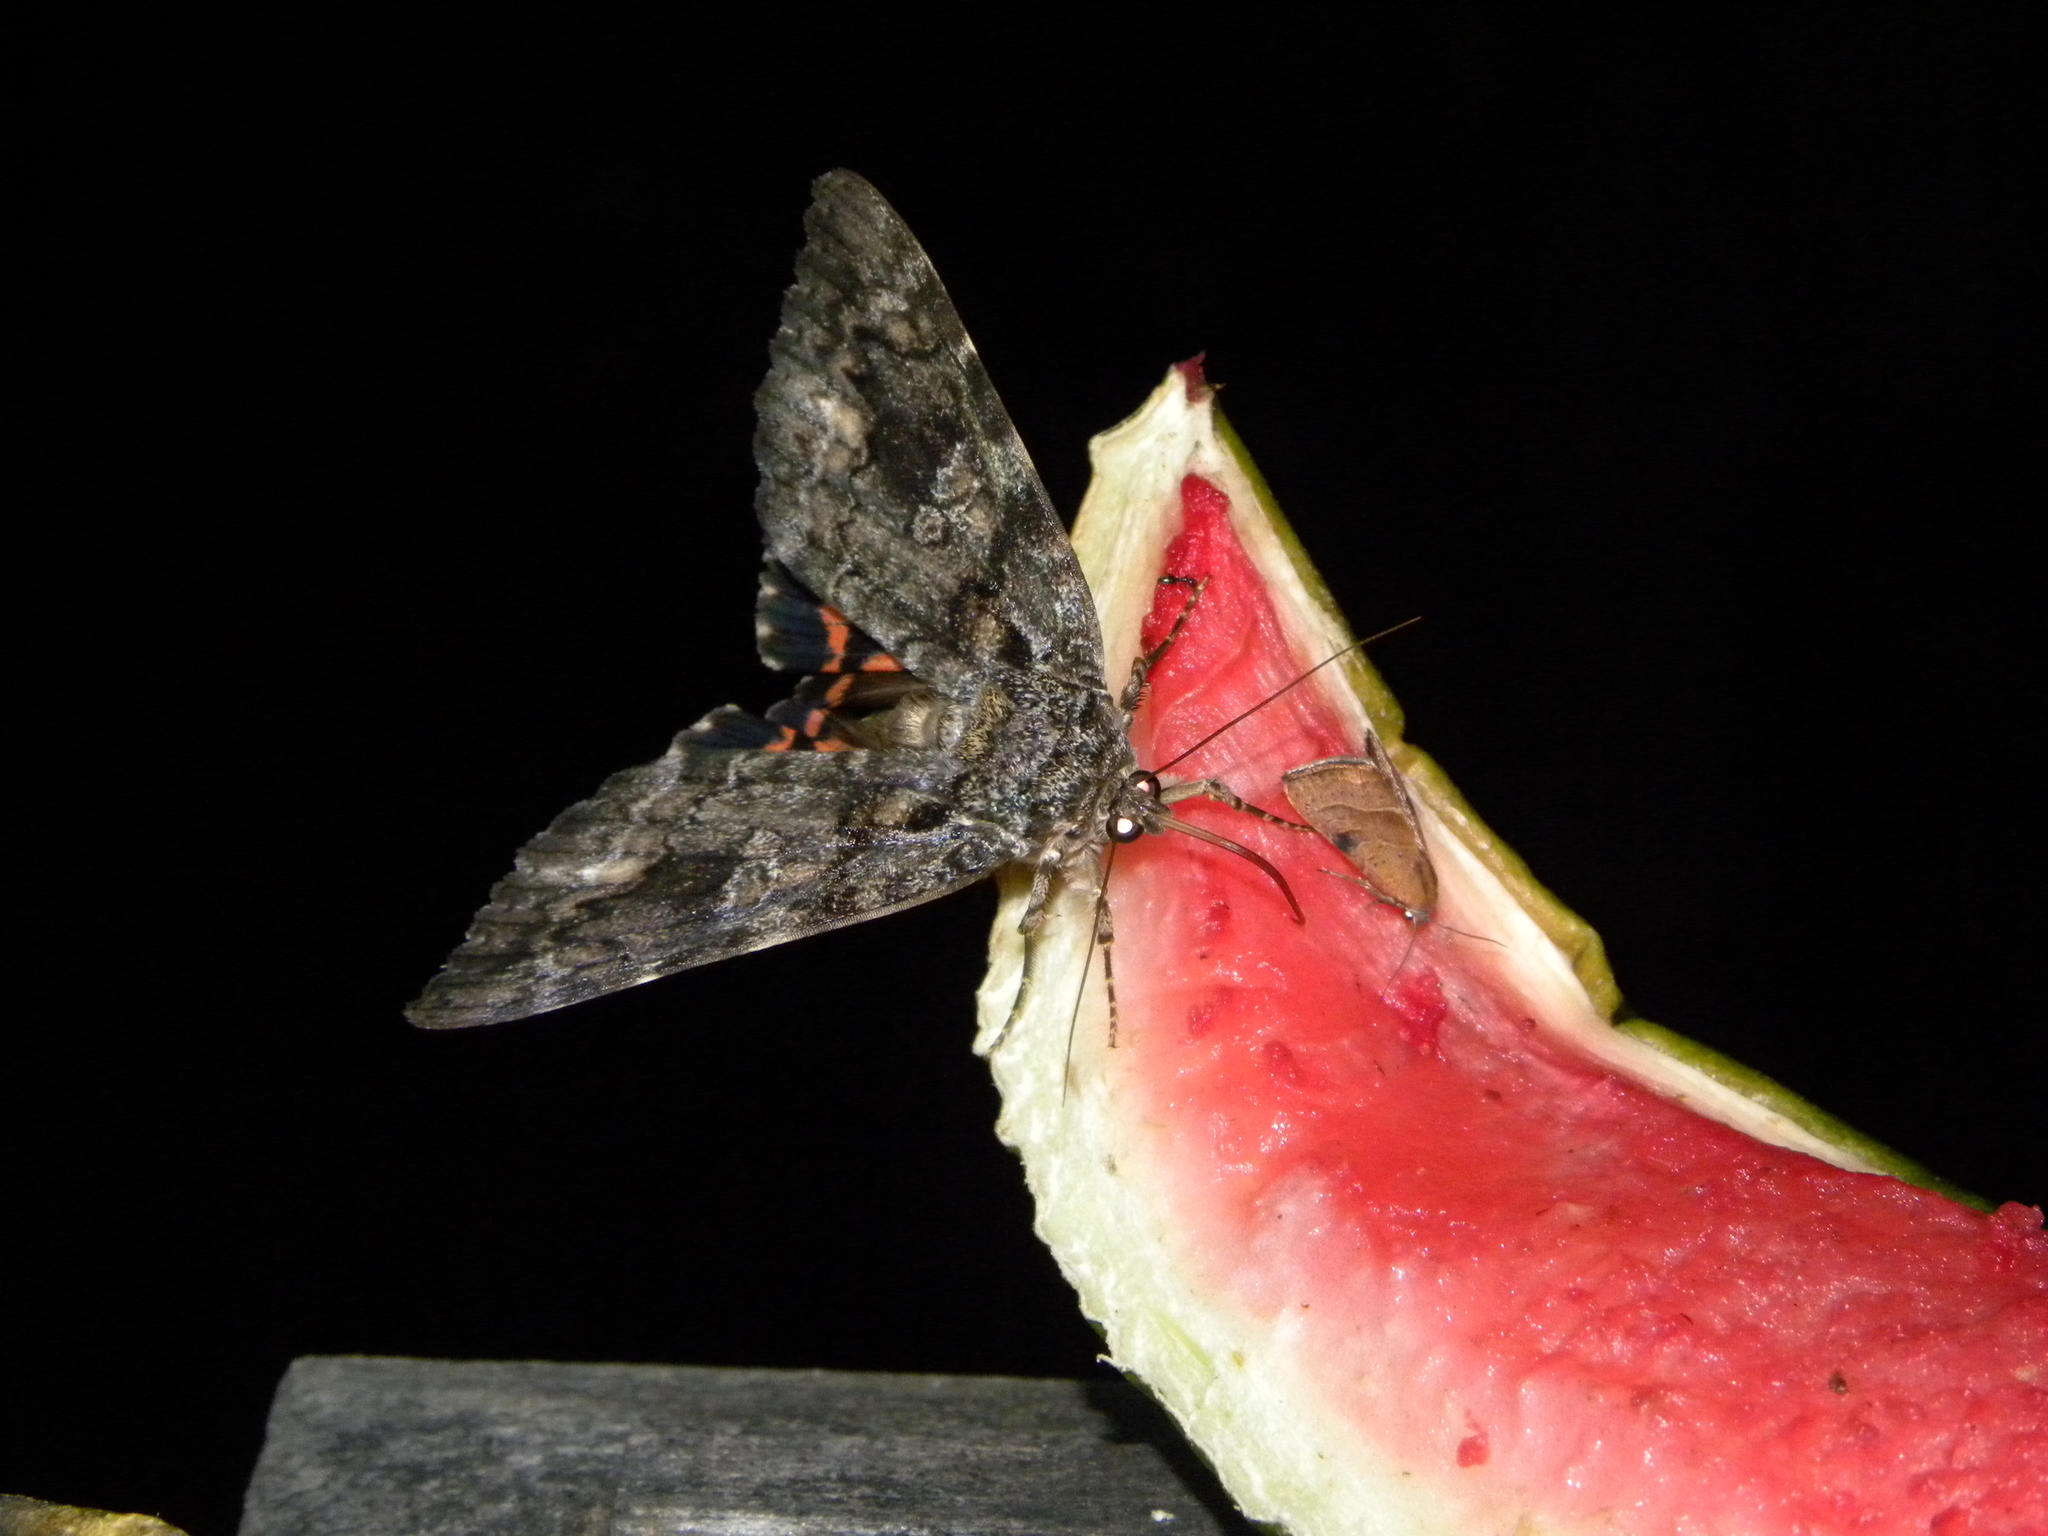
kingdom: Animalia
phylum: Arthropoda
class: Insecta
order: Lepidoptera
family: Erebidae
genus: Catocala
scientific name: Catocala ilia
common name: Ilia underwing
